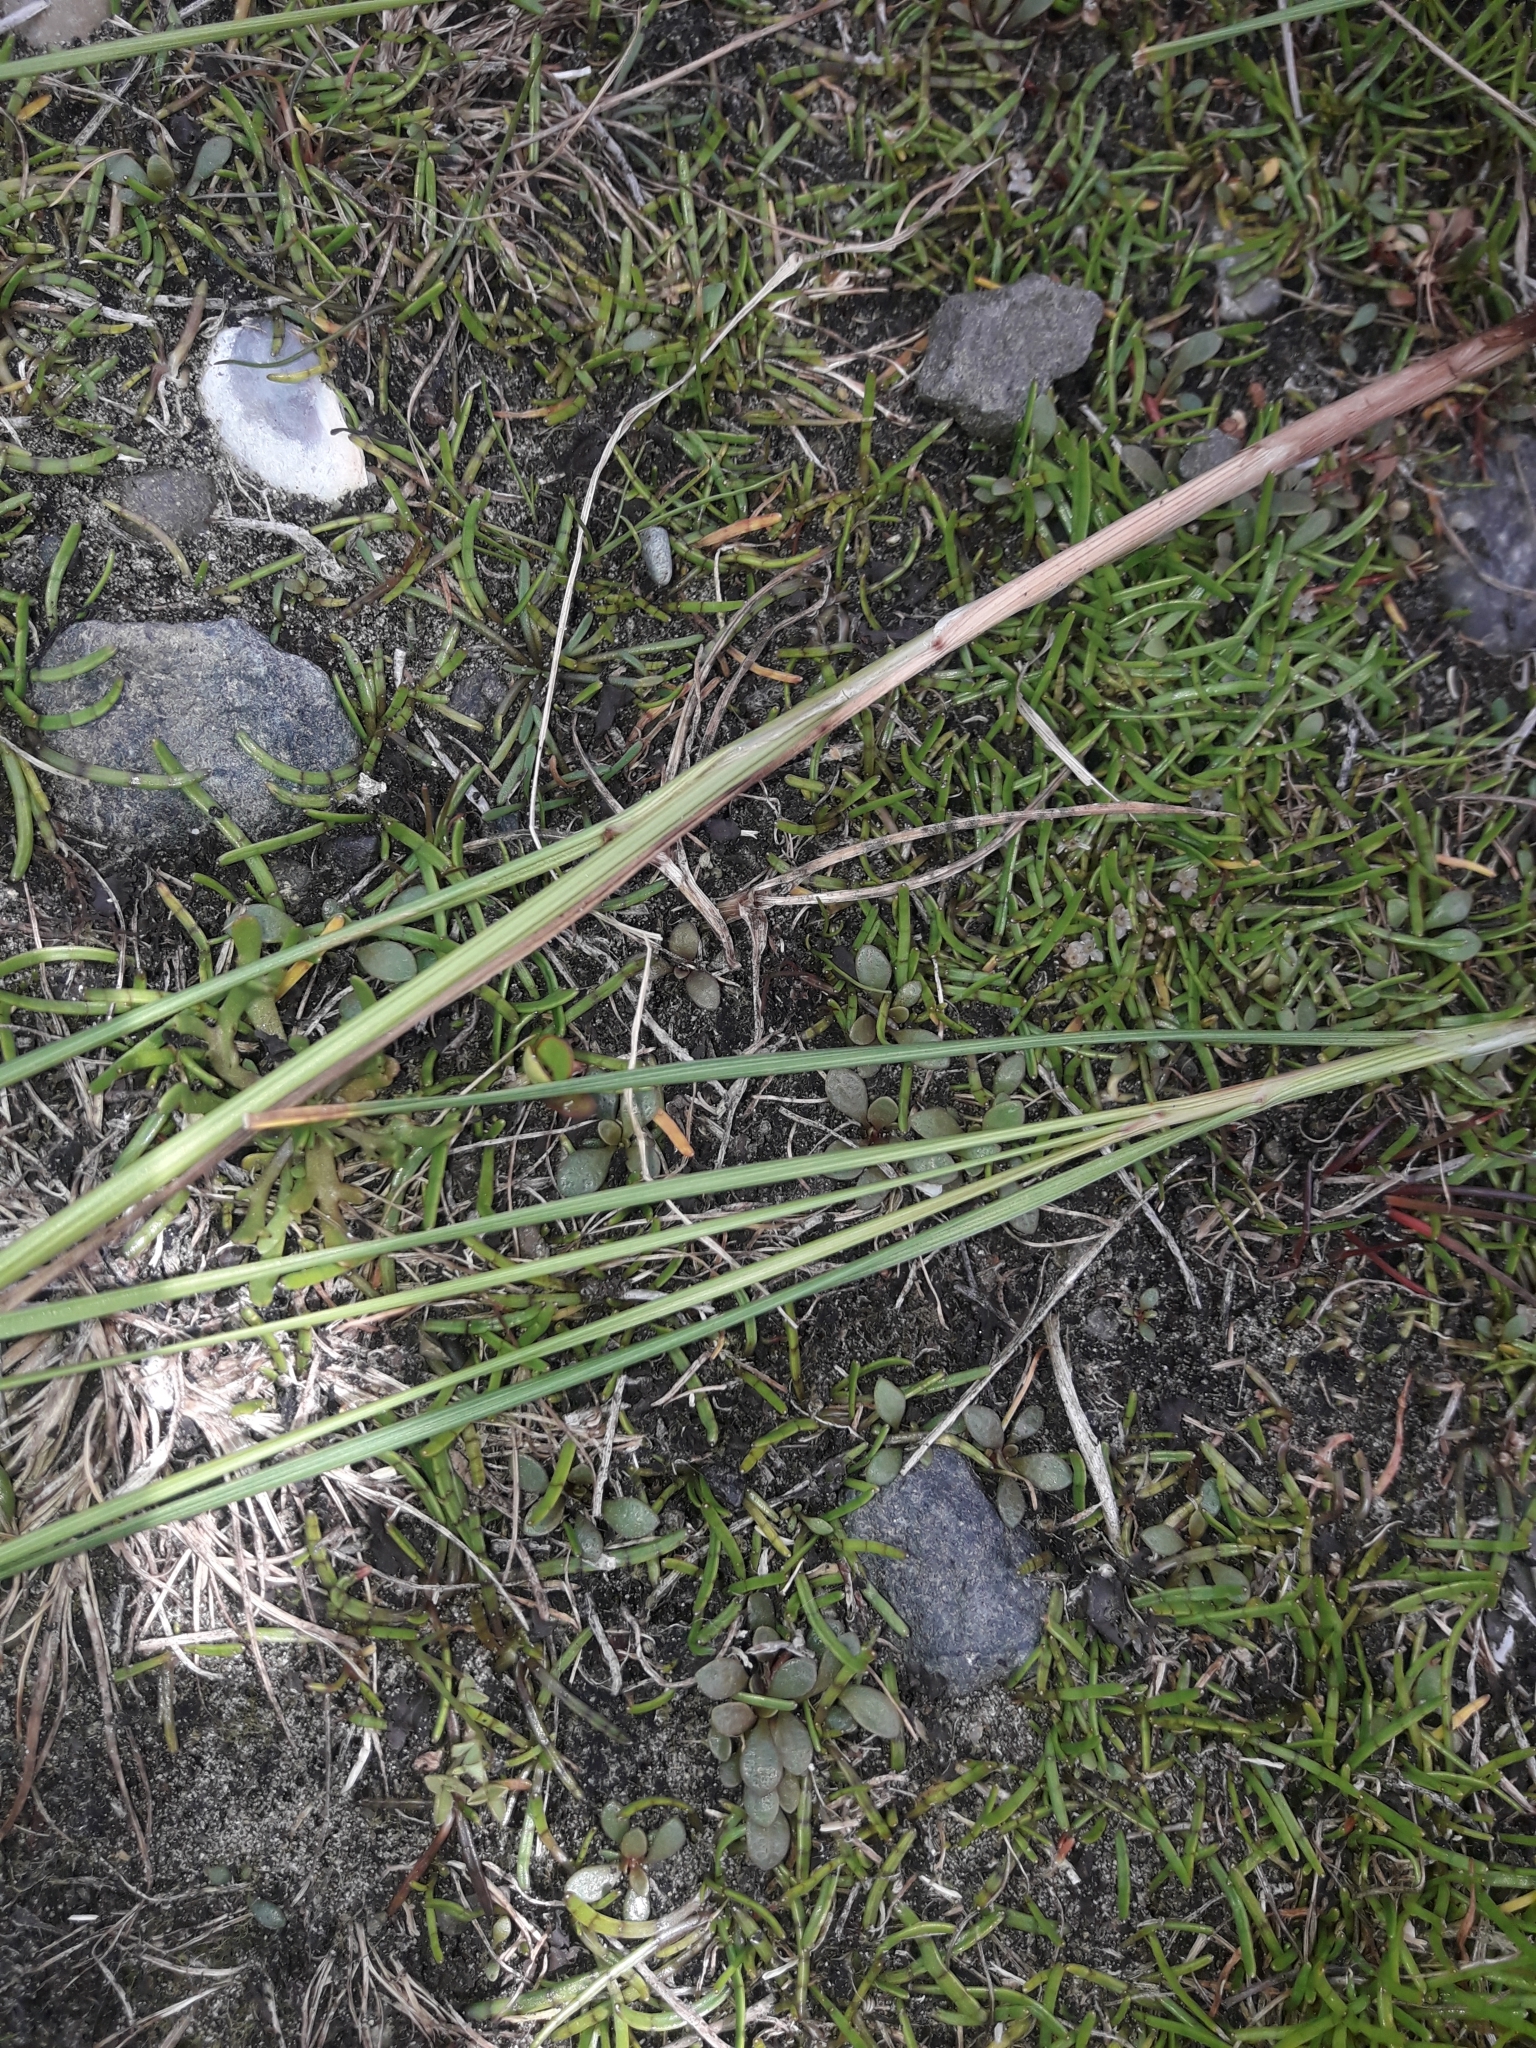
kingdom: Plantae
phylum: Tracheophyta
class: Liliopsida
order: Poales
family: Juncaceae
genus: Juncus
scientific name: Juncus gerardi
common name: Saltmarsh rush
